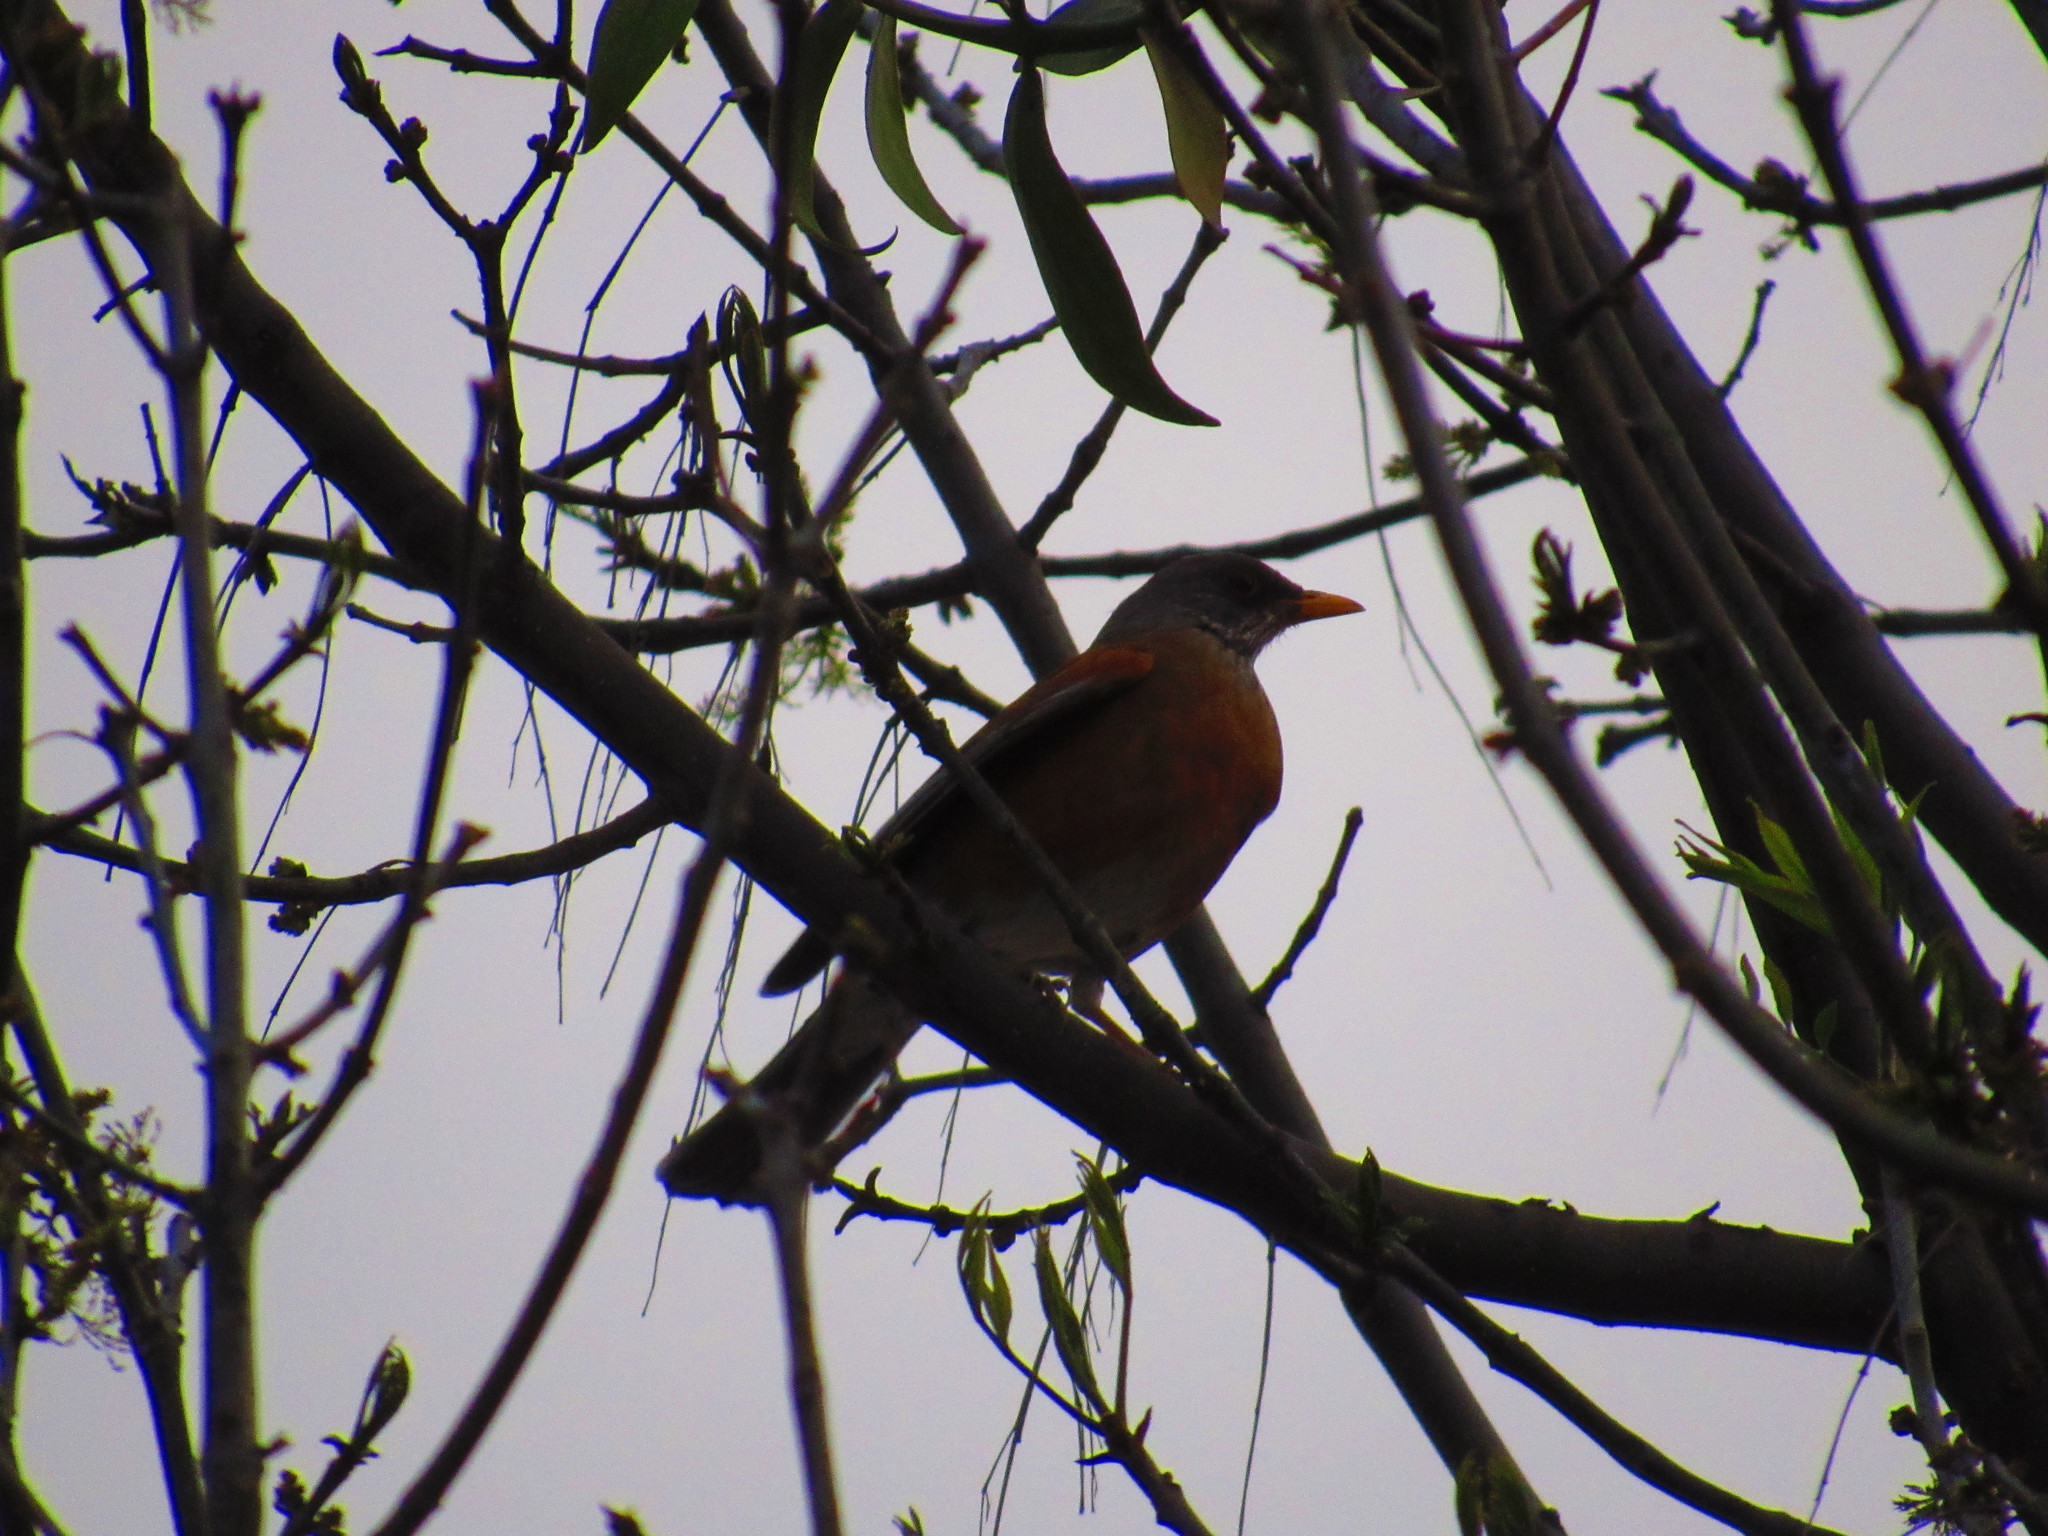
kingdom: Animalia
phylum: Chordata
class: Aves
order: Passeriformes
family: Turdidae
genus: Turdus
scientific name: Turdus rufopalliatus
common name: Rufous-backed robin
